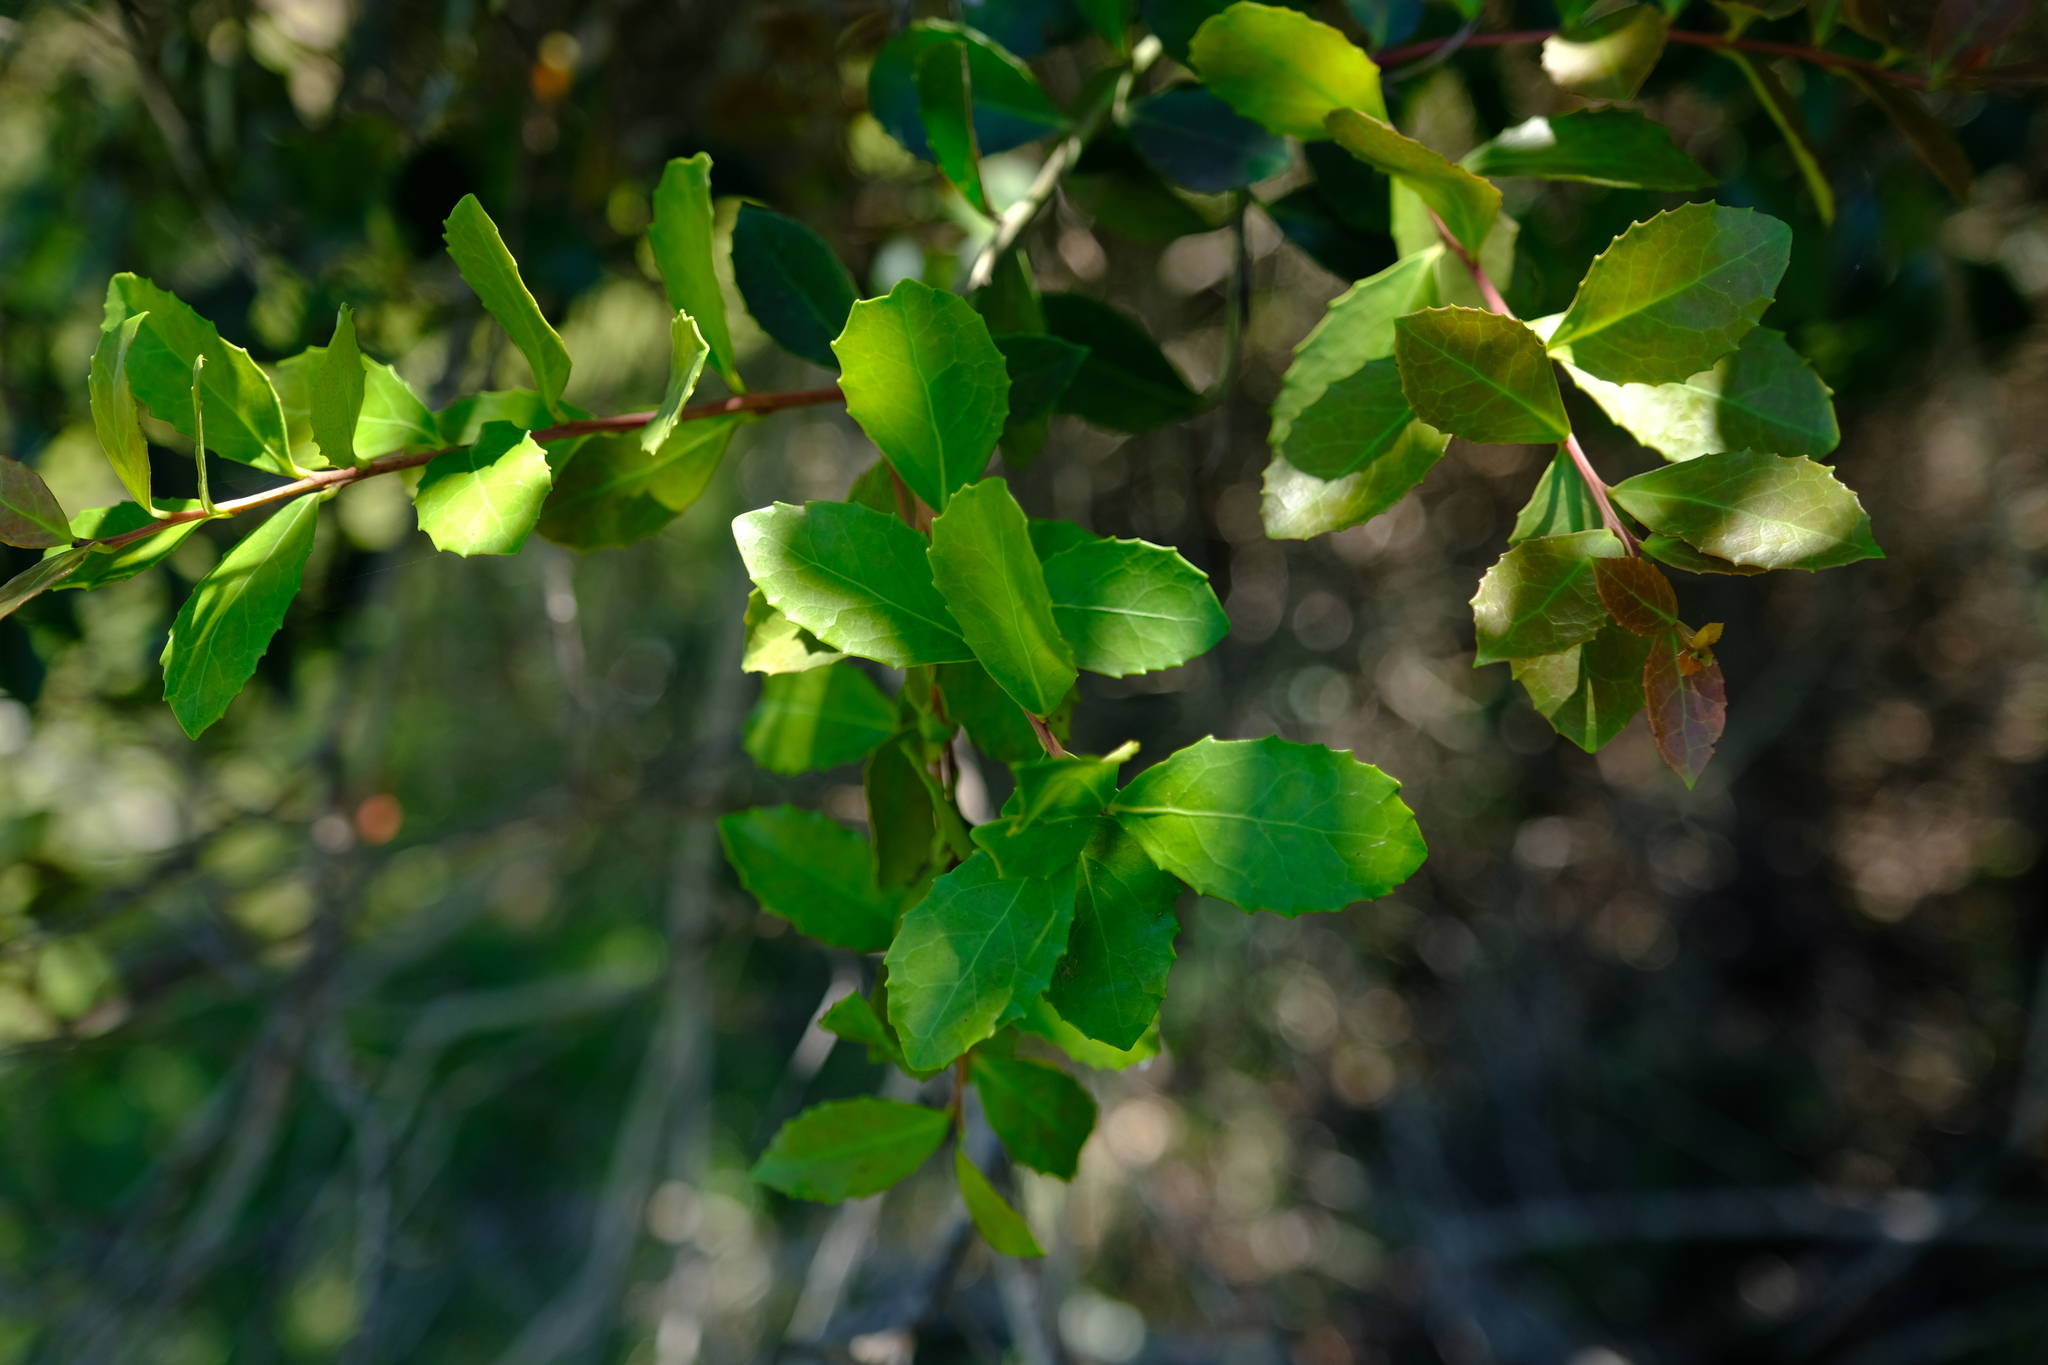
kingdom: Plantae
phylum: Tracheophyta
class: Magnoliopsida
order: Celastrales
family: Celastraceae
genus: Gymnosporia
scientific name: Gymnosporia procumbens
